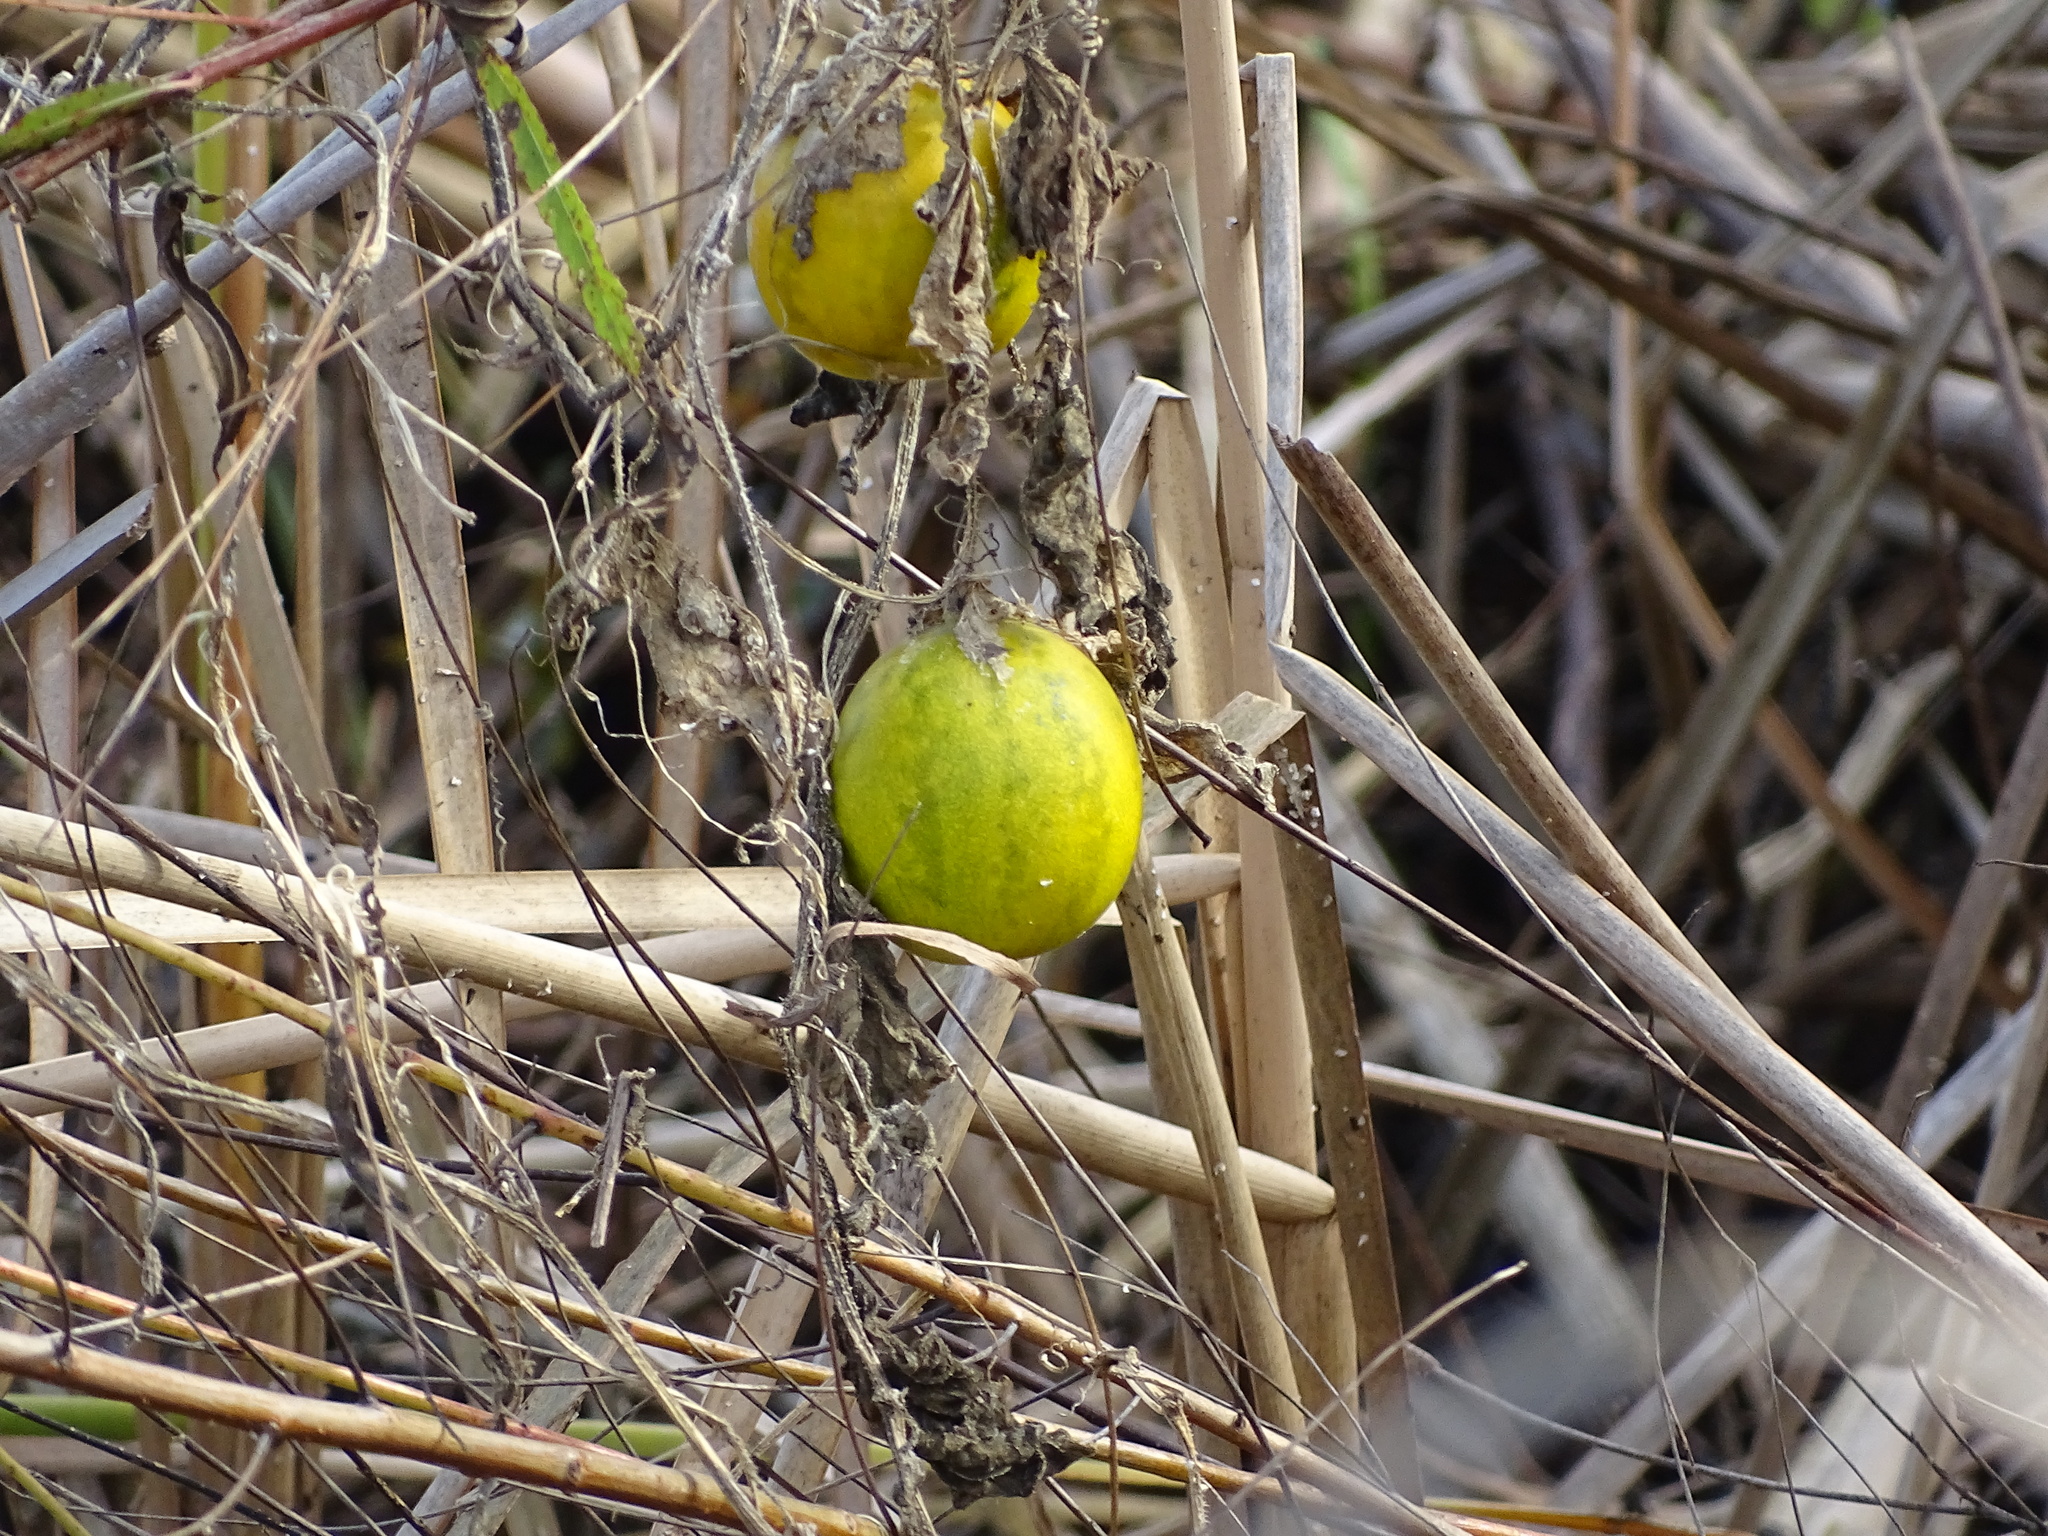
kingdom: Plantae
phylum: Tracheophyta
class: Magnoliopsida
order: Cucurbitales
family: Cucurbitaceae
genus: Cucumis
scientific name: Cucumis melo
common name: Melon
